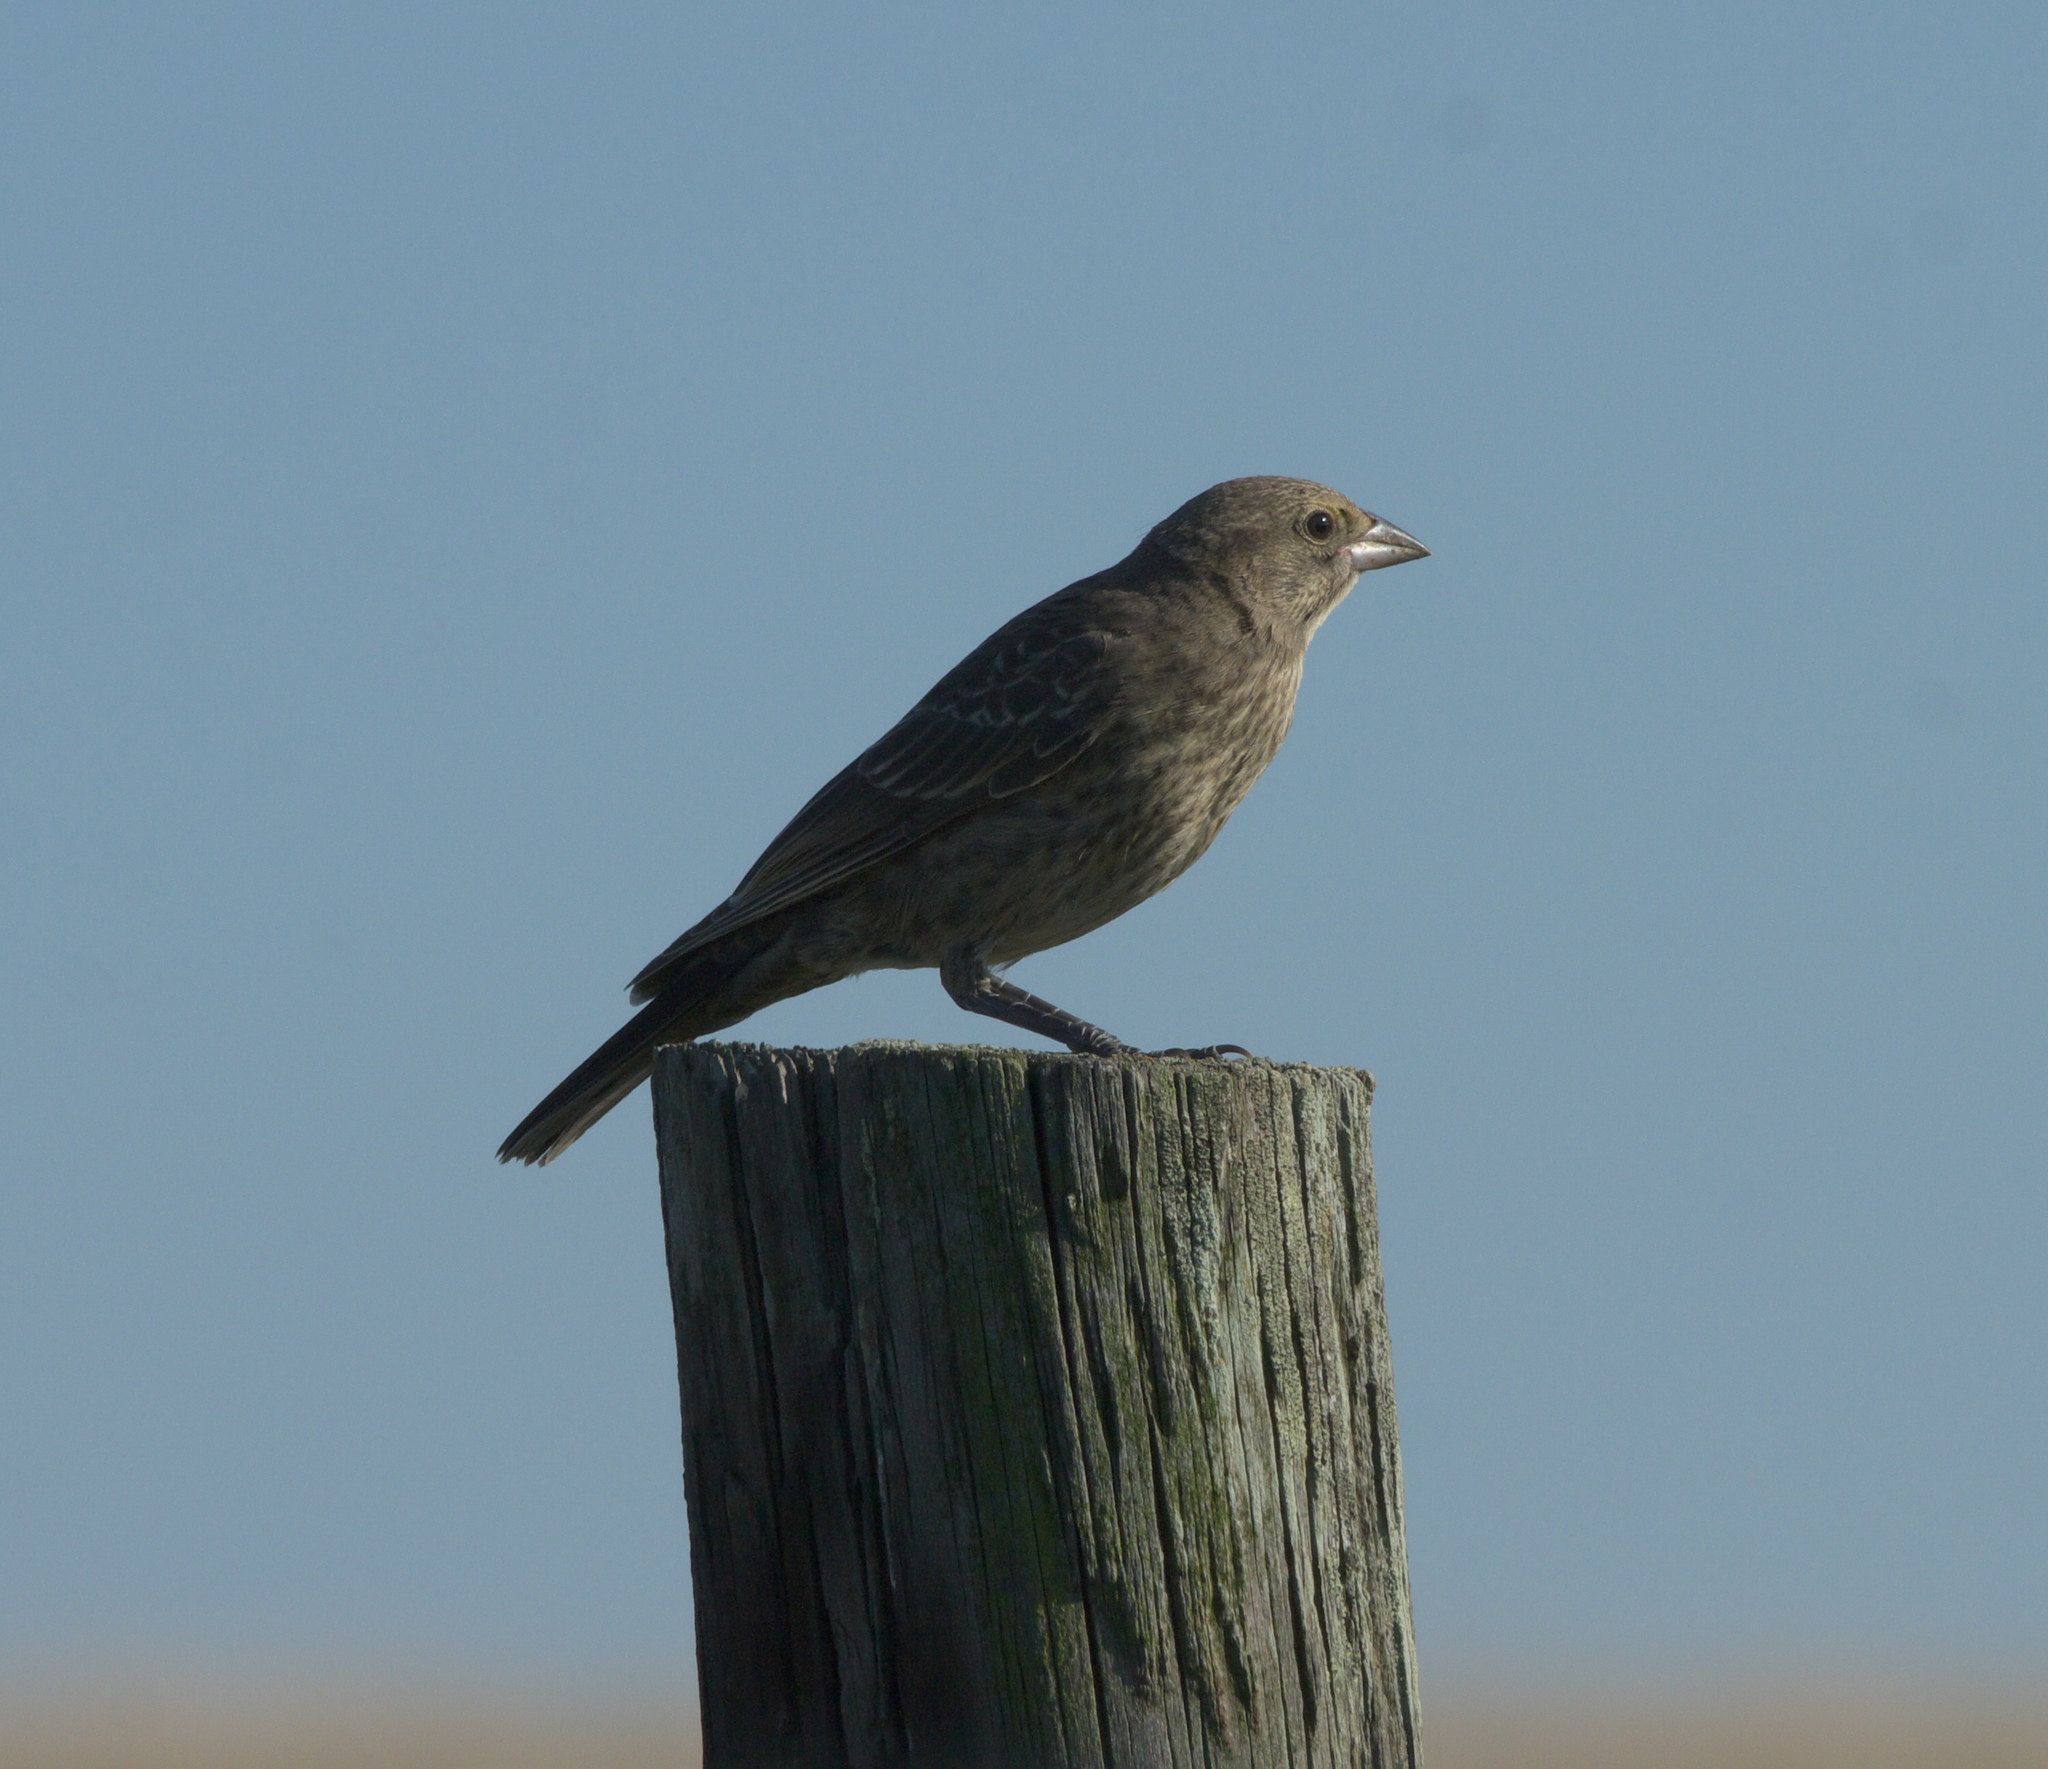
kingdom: Animalia
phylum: Chordata
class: Aves
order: Passeriformes
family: Icteridae
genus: Molothrus
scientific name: Molothrus ater
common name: Brown-headed cowbird
